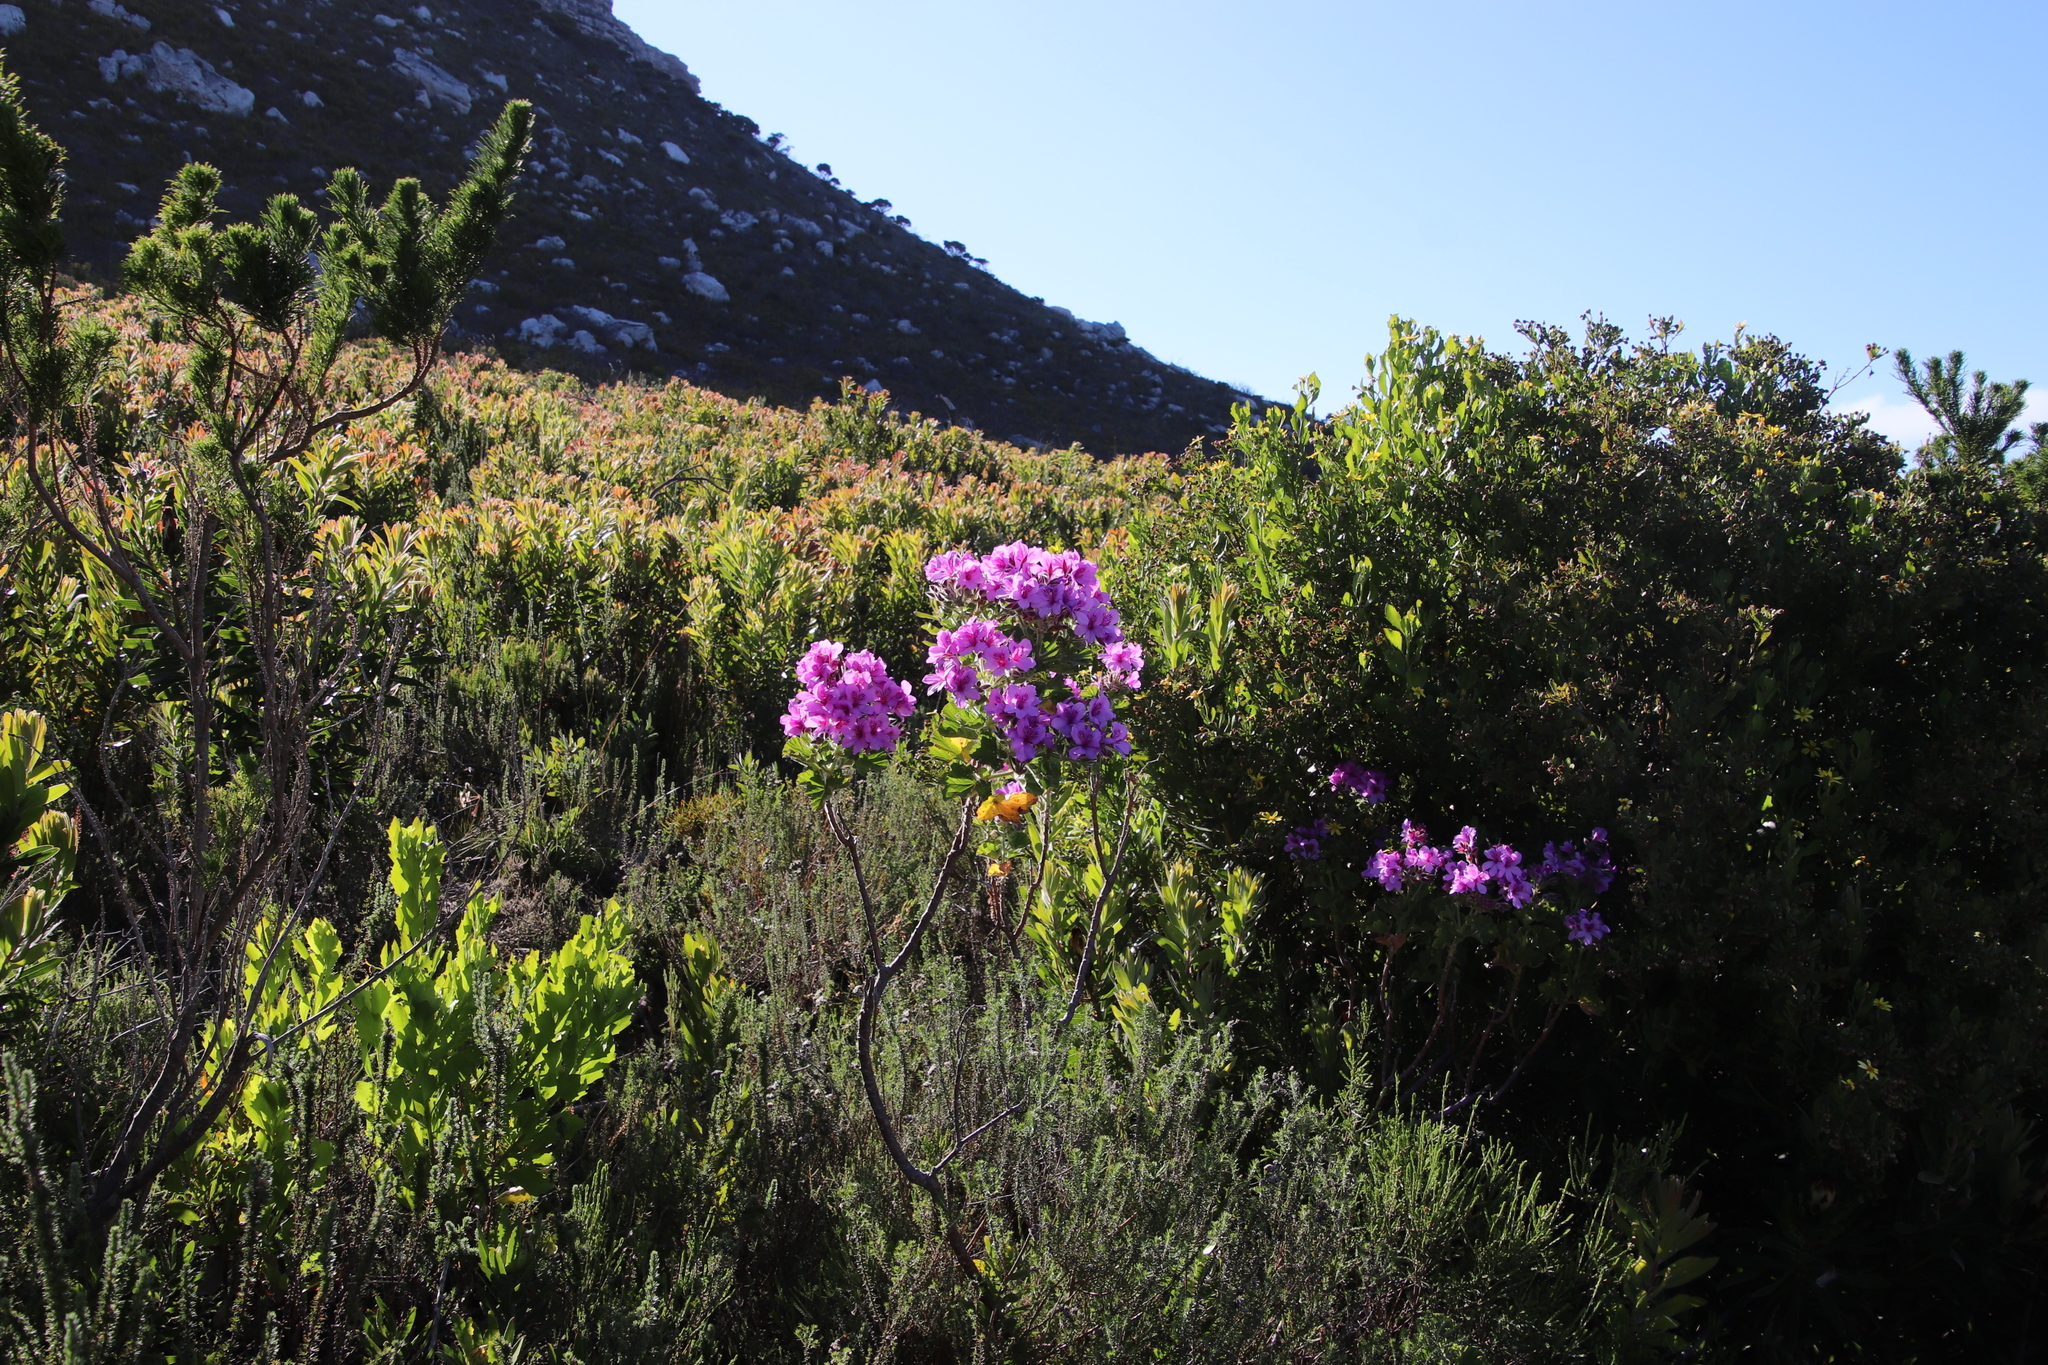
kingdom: Plantae
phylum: Tracheophyta
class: Magnoliopsida
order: Geraniales
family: Geraniaceae
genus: Pelargonium
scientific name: Pelargonium cucullatum
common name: Tree pelargonium
